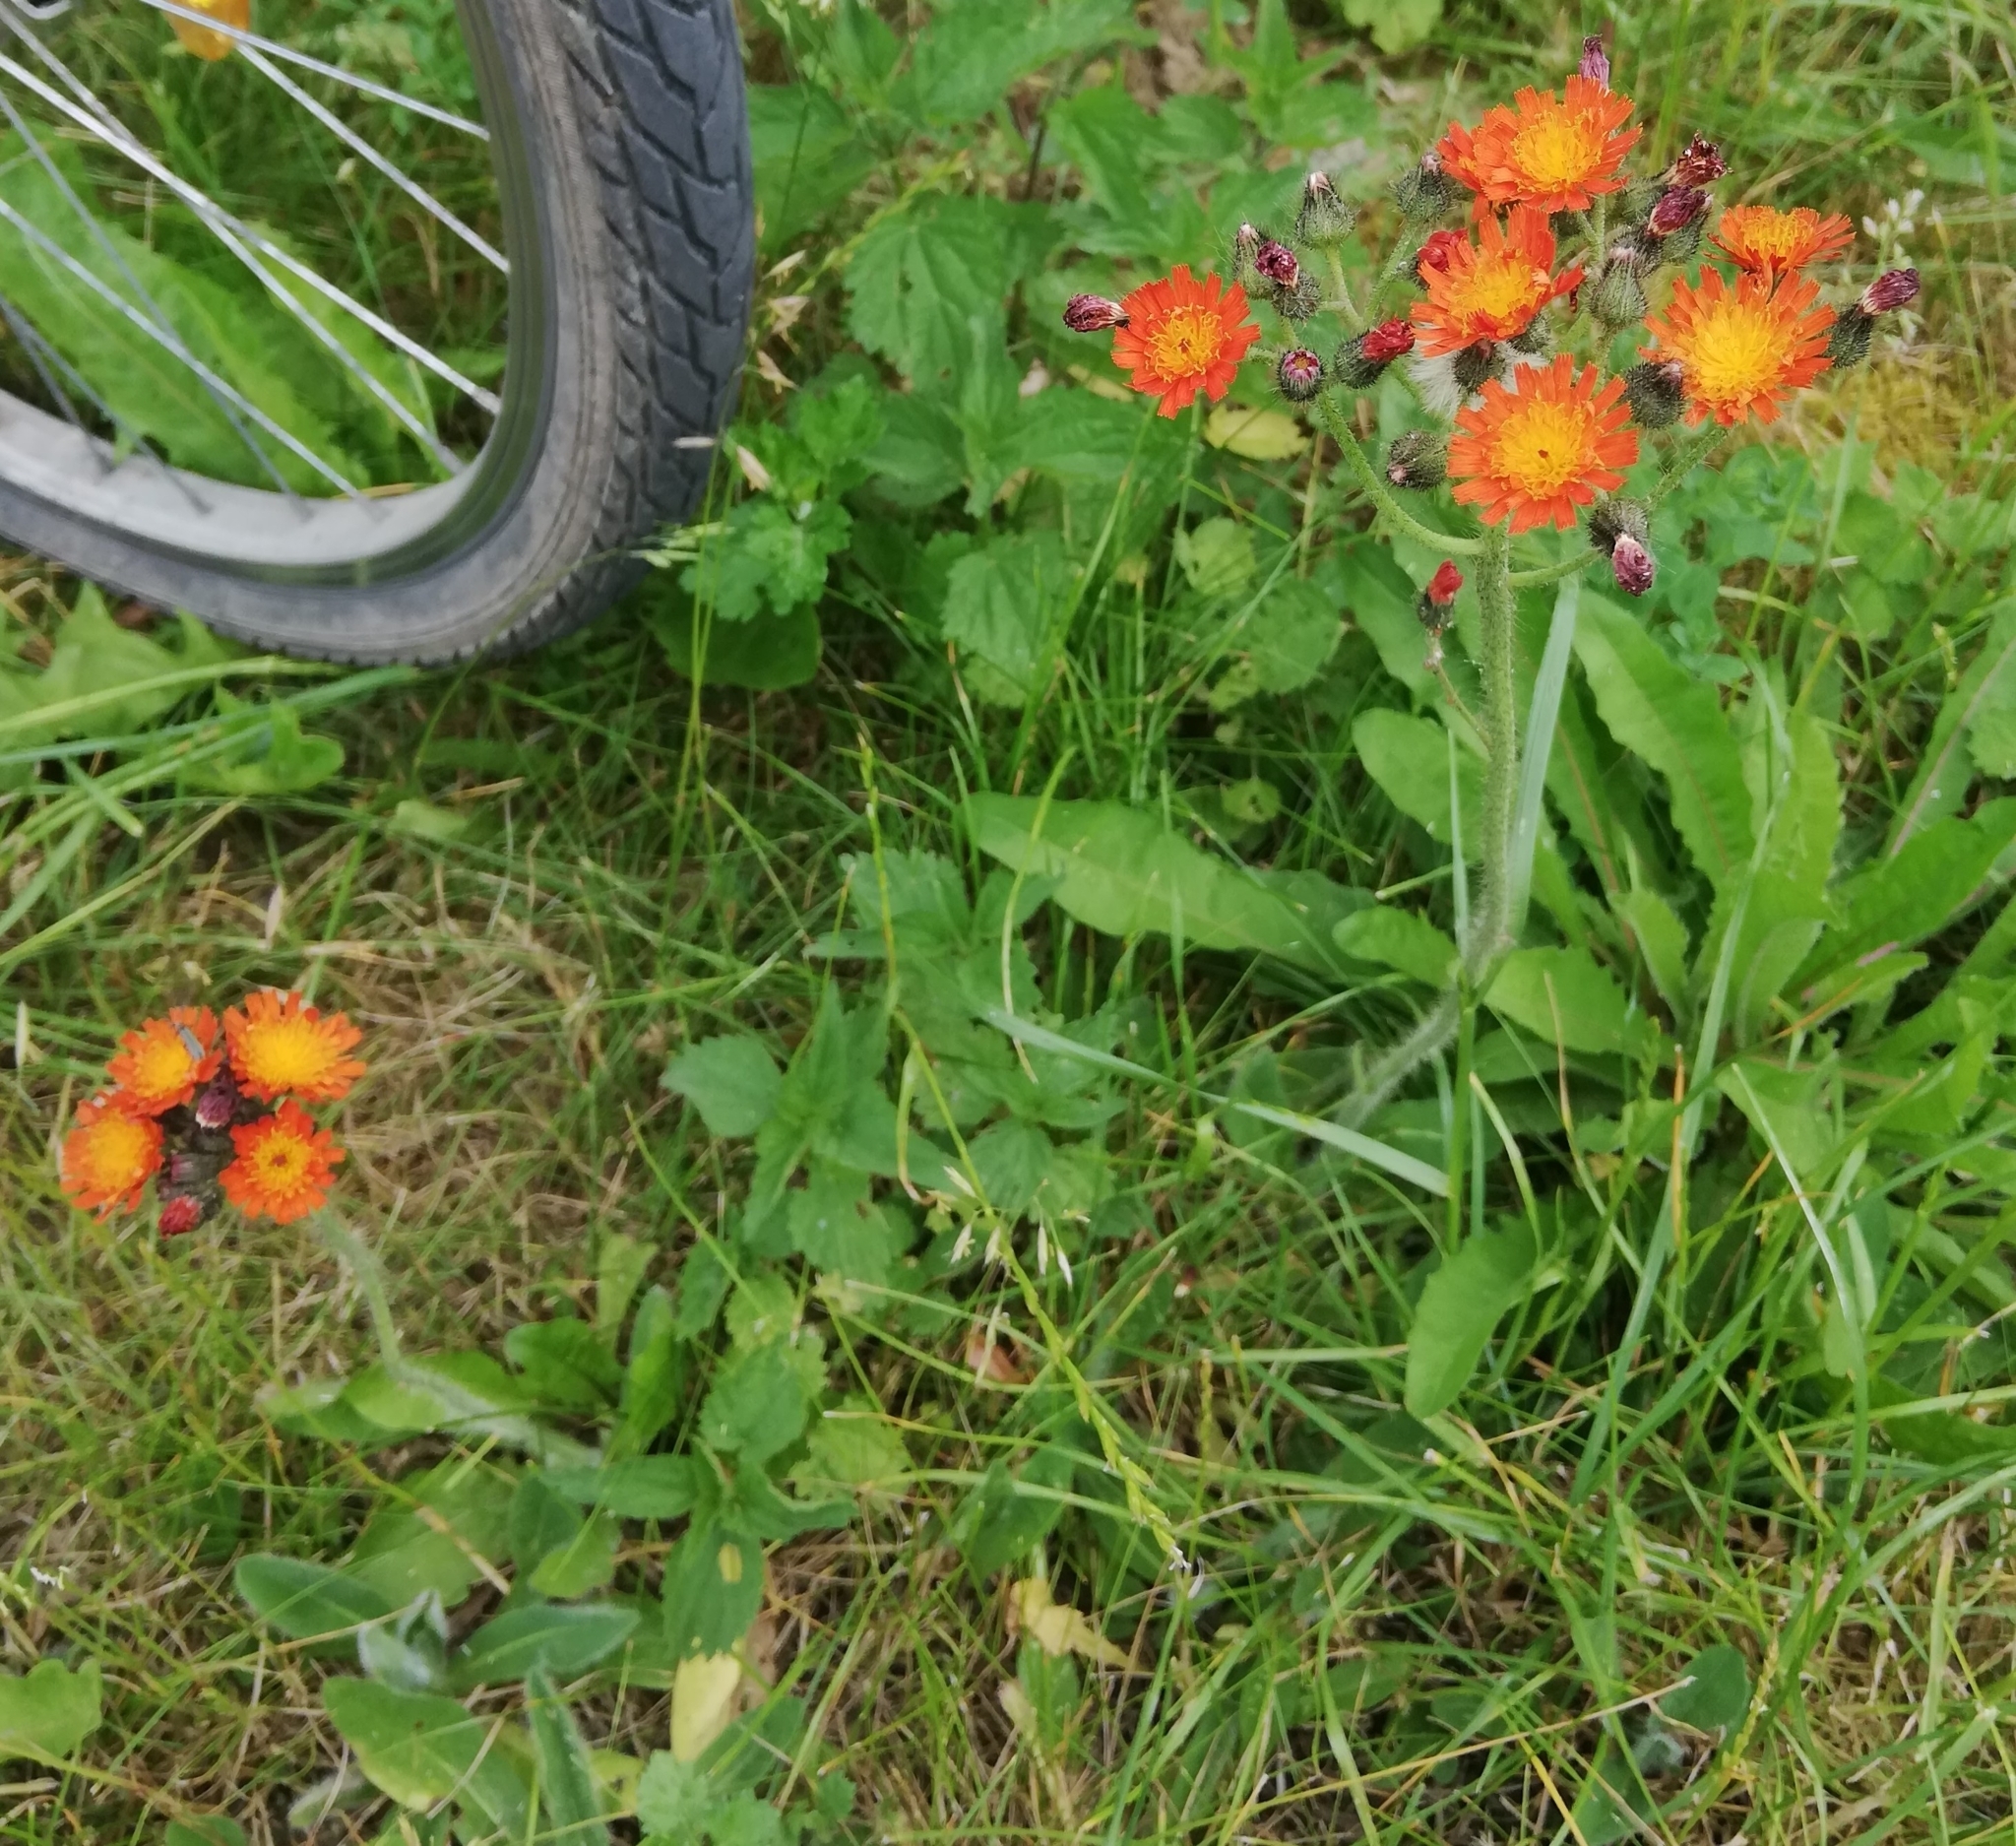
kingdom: Plantae
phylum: Tracheophyta
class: Magnoliopsida
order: Asterales
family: Asteraceae
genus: Pilosella
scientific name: Pilosella aurantiaca
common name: Fox-and-cubs
